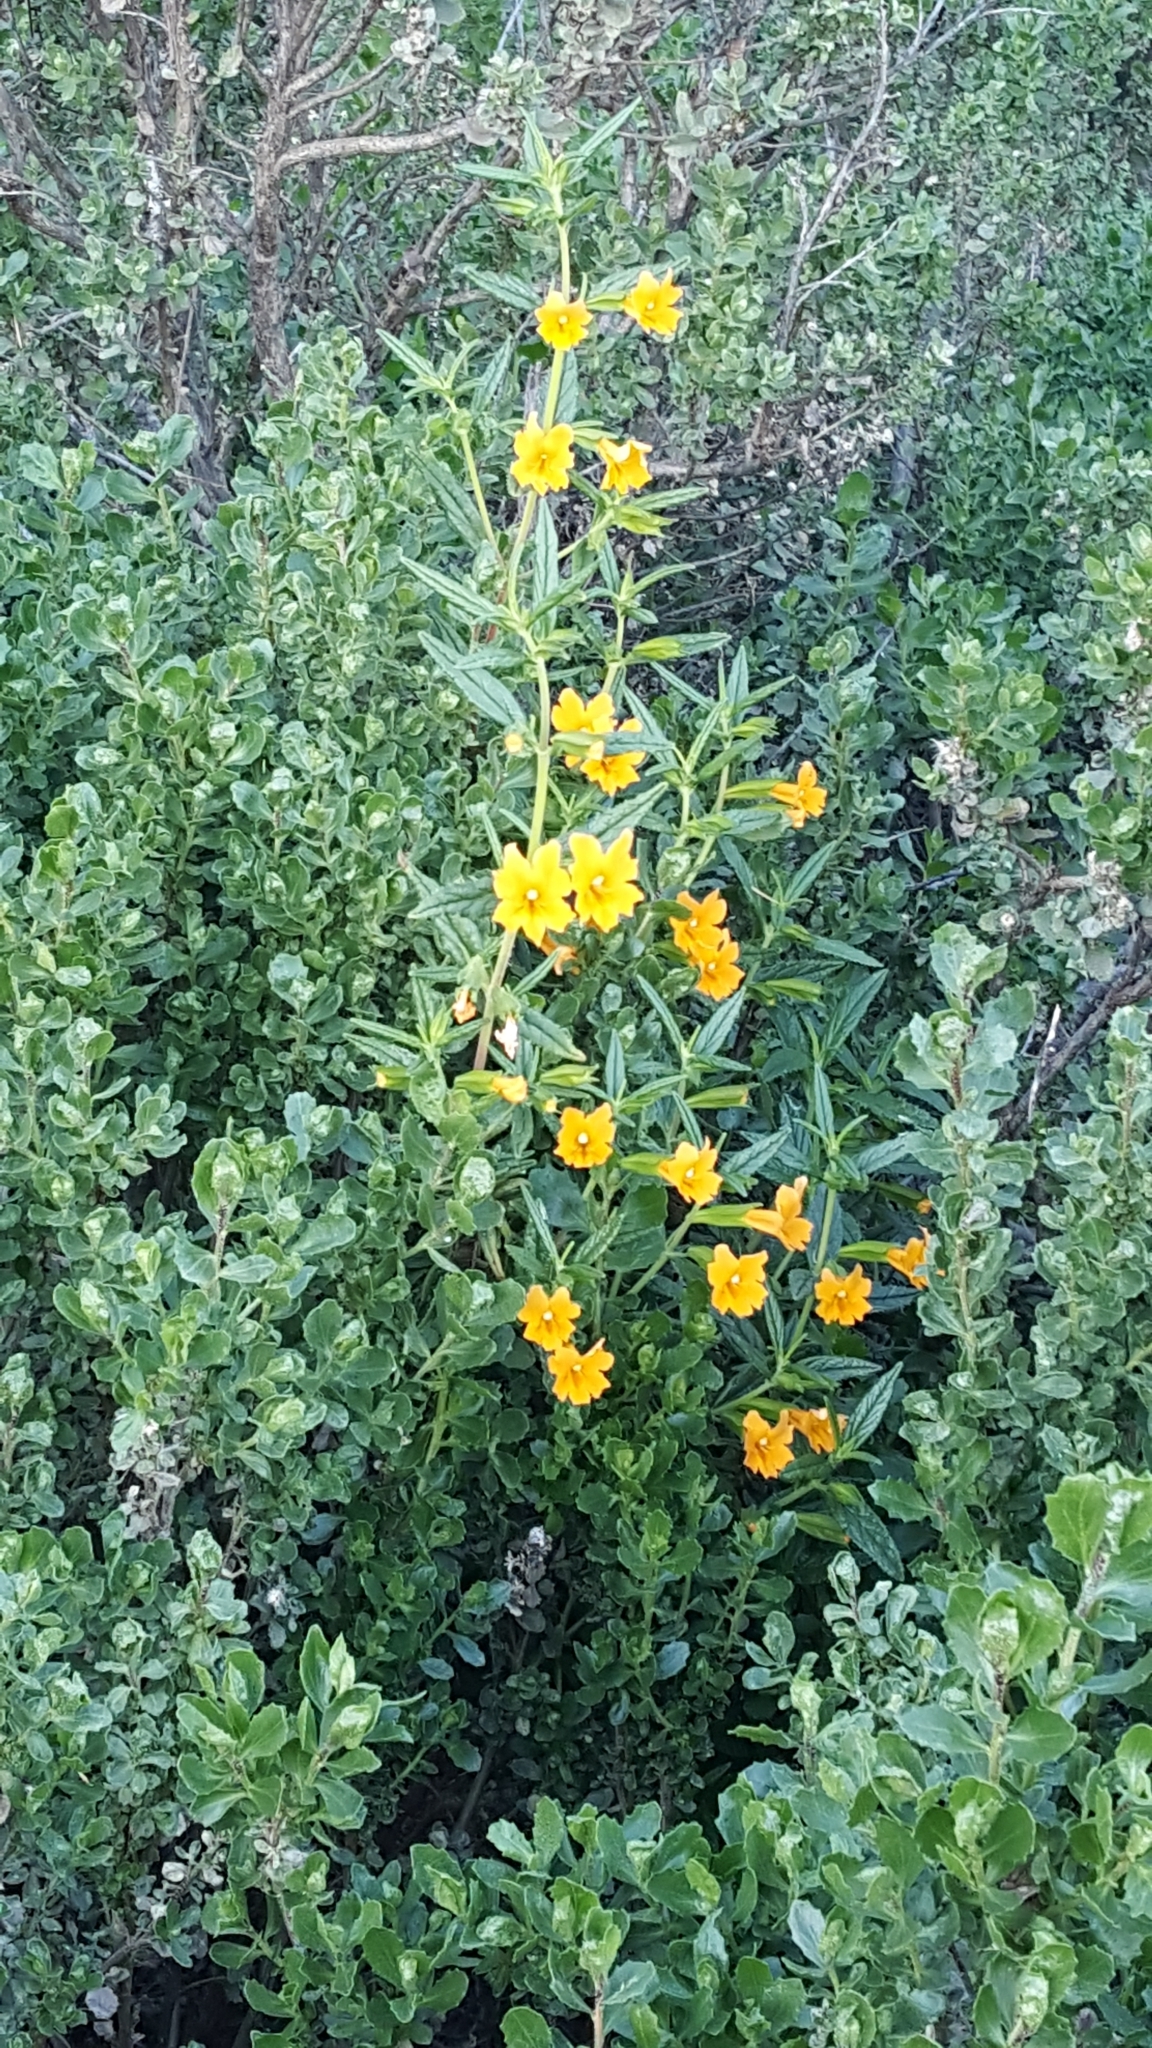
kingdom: Plantae
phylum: Tracheophyta
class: Magnoliopsida
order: Lamiales
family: Phrymaceae
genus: Diplacus
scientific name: Diplacus aurantiacus
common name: Bush monkey-flower
